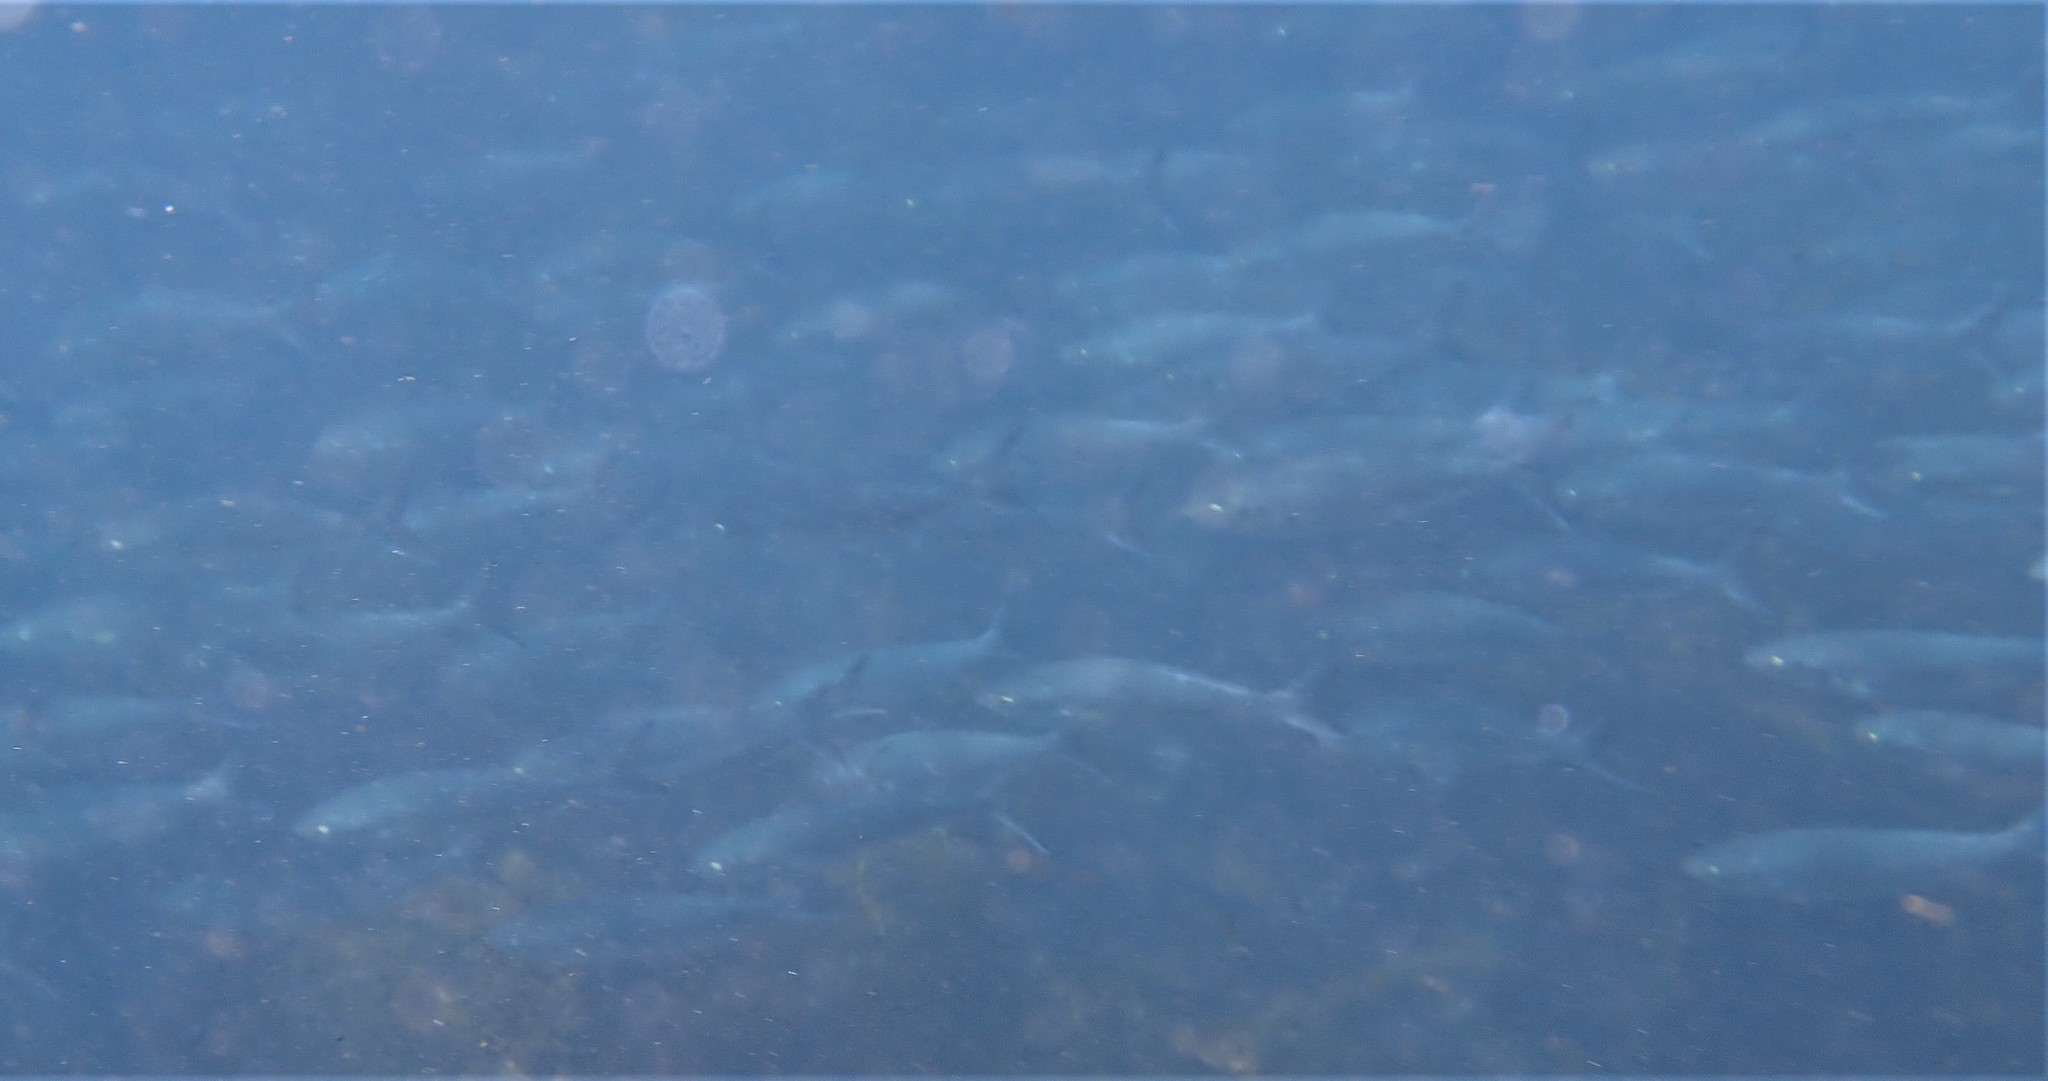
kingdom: Animalia
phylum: Chordata
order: Perciformes
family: Arripidae
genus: Arripis
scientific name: Arripis trutta
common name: Kahawai
